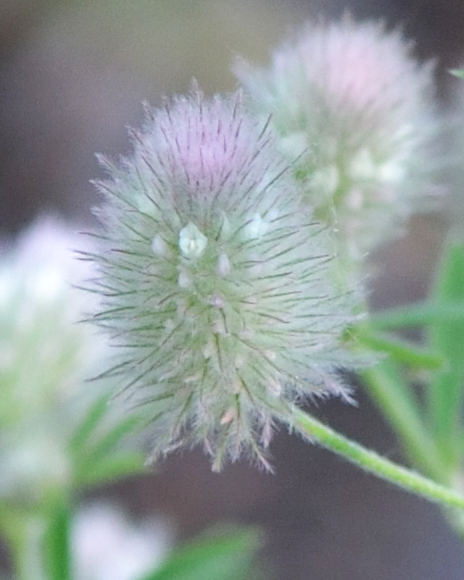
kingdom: Plantae
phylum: Tracheophyta
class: Magnoliopsida
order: Fabales
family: Fabaceae
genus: Trifolium
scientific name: Trifolium arvense
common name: Hare's-foot clover
